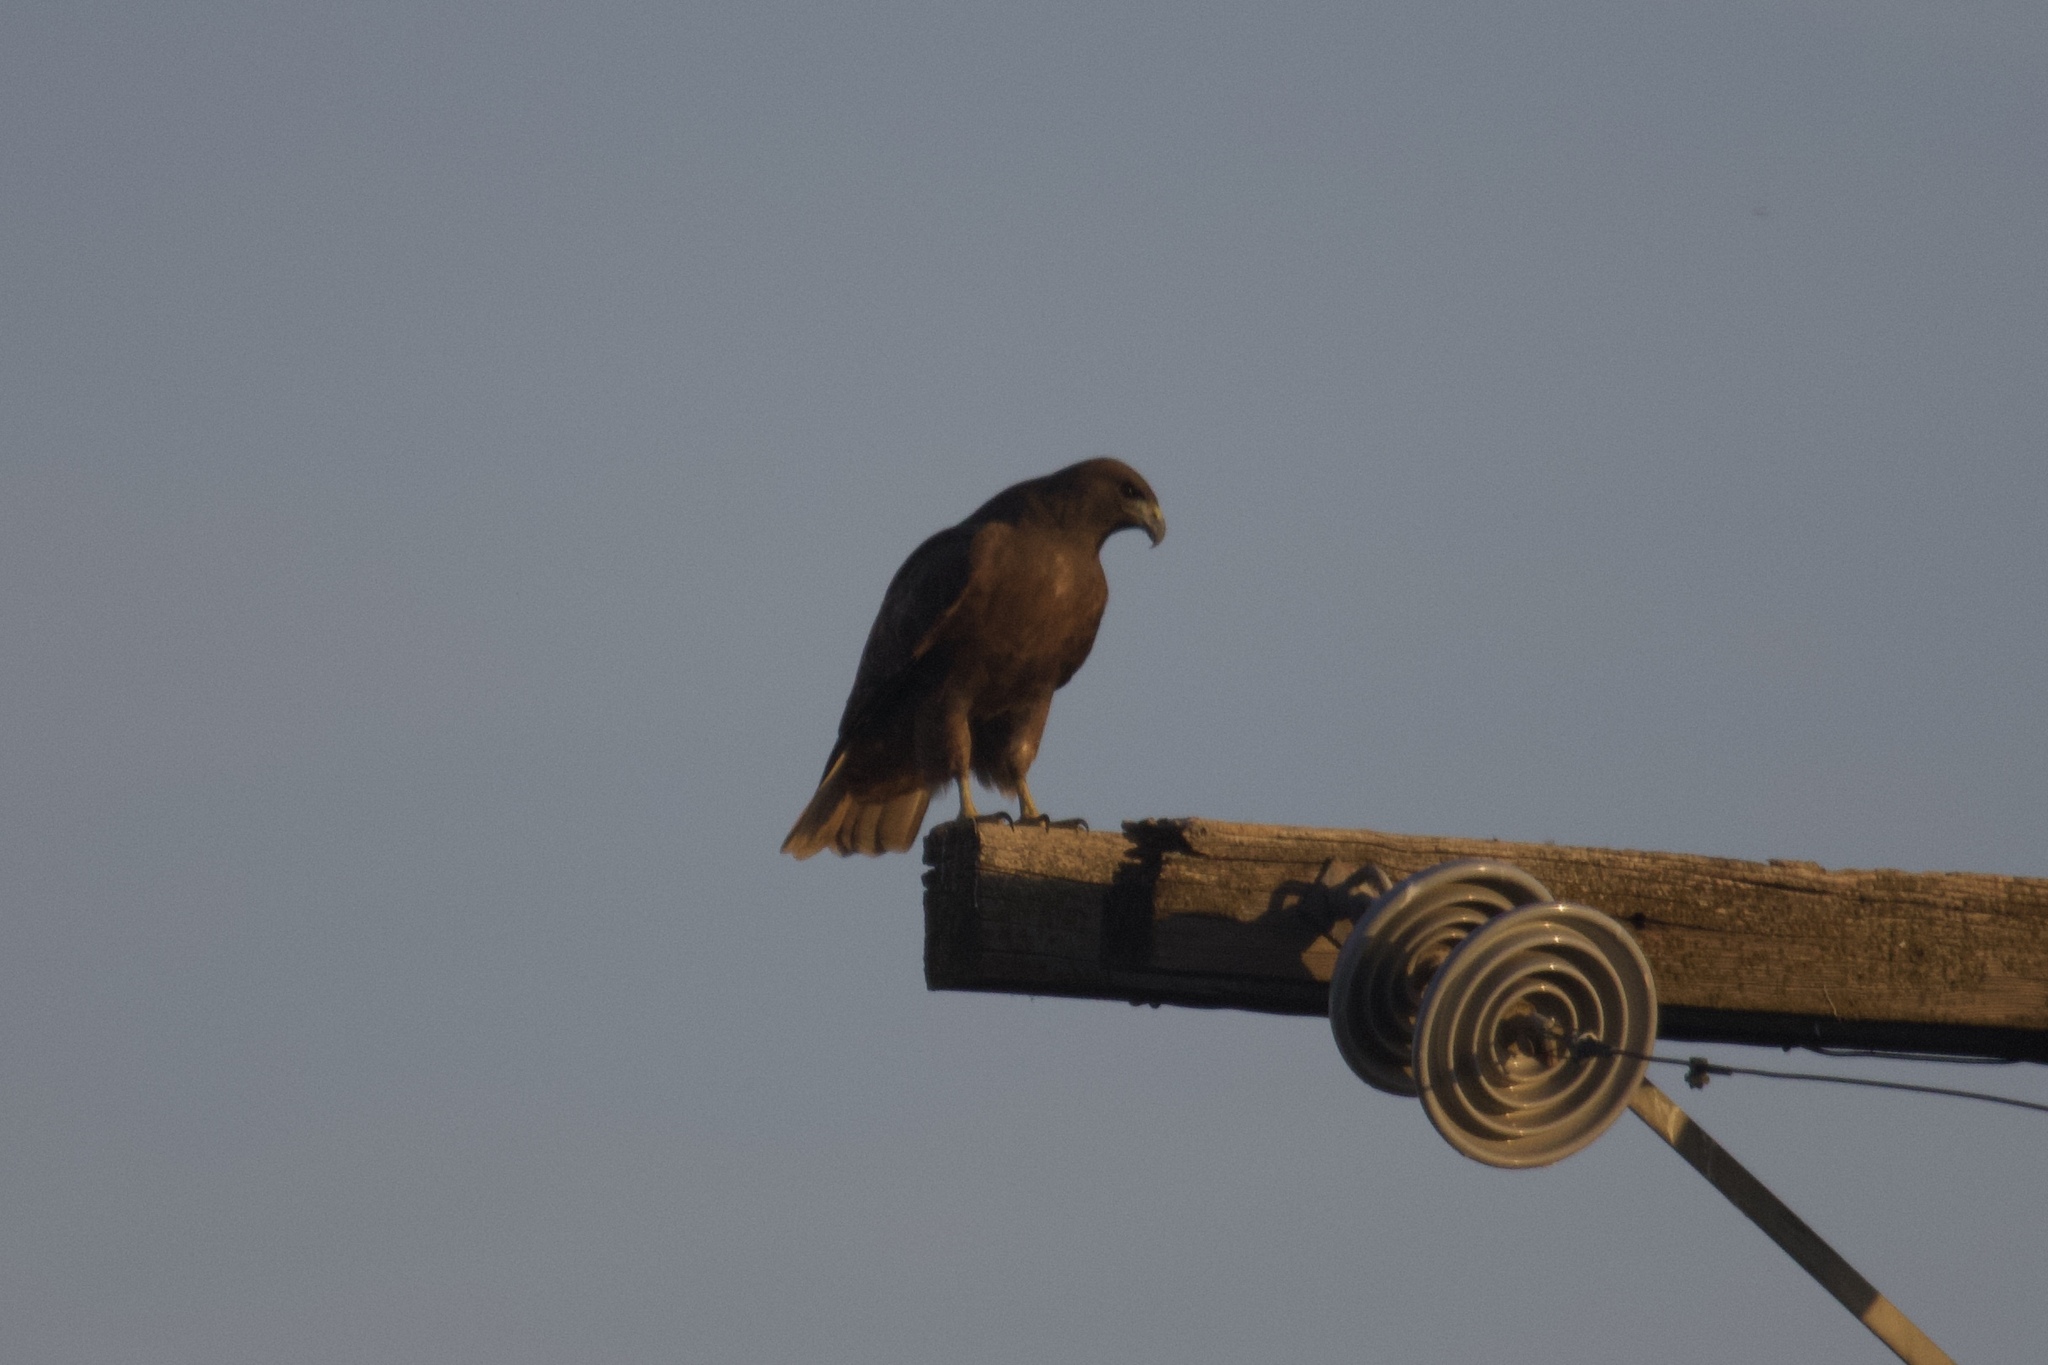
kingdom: Animalia
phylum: Chordata
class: Aves
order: Accipitriformes
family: Accipitridae
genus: Buteo
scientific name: Buteo jamaicensis
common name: Red-tailed hawk
